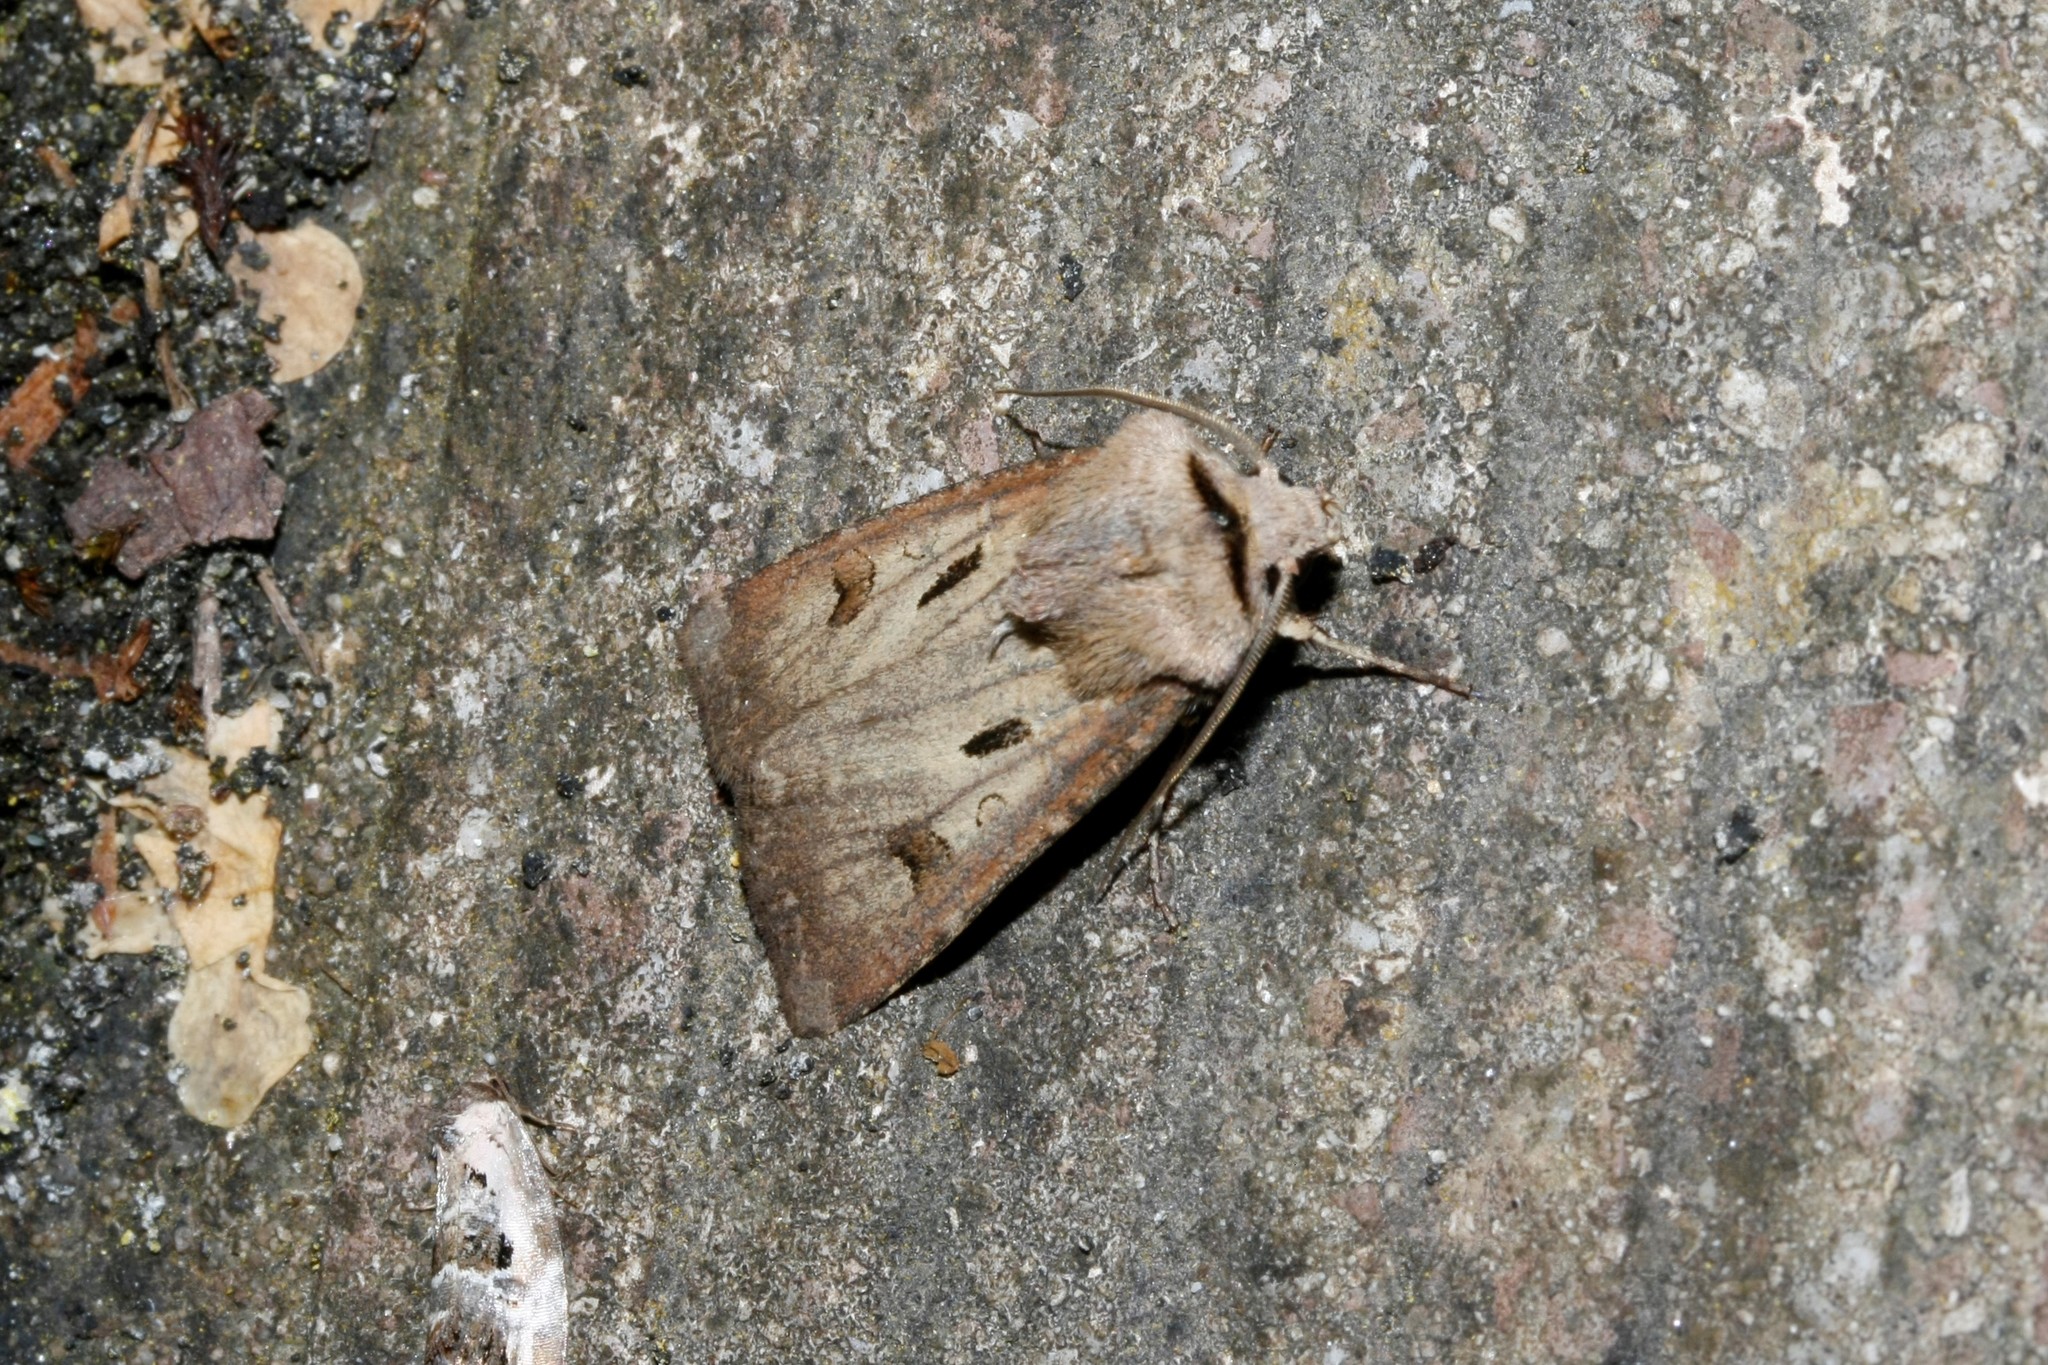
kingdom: Animalia
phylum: Arthropoda
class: Insecta
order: Lepidoptera
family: Noctuidae
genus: Agrotis
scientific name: Agrotis exclamationis
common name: Heart and dart
